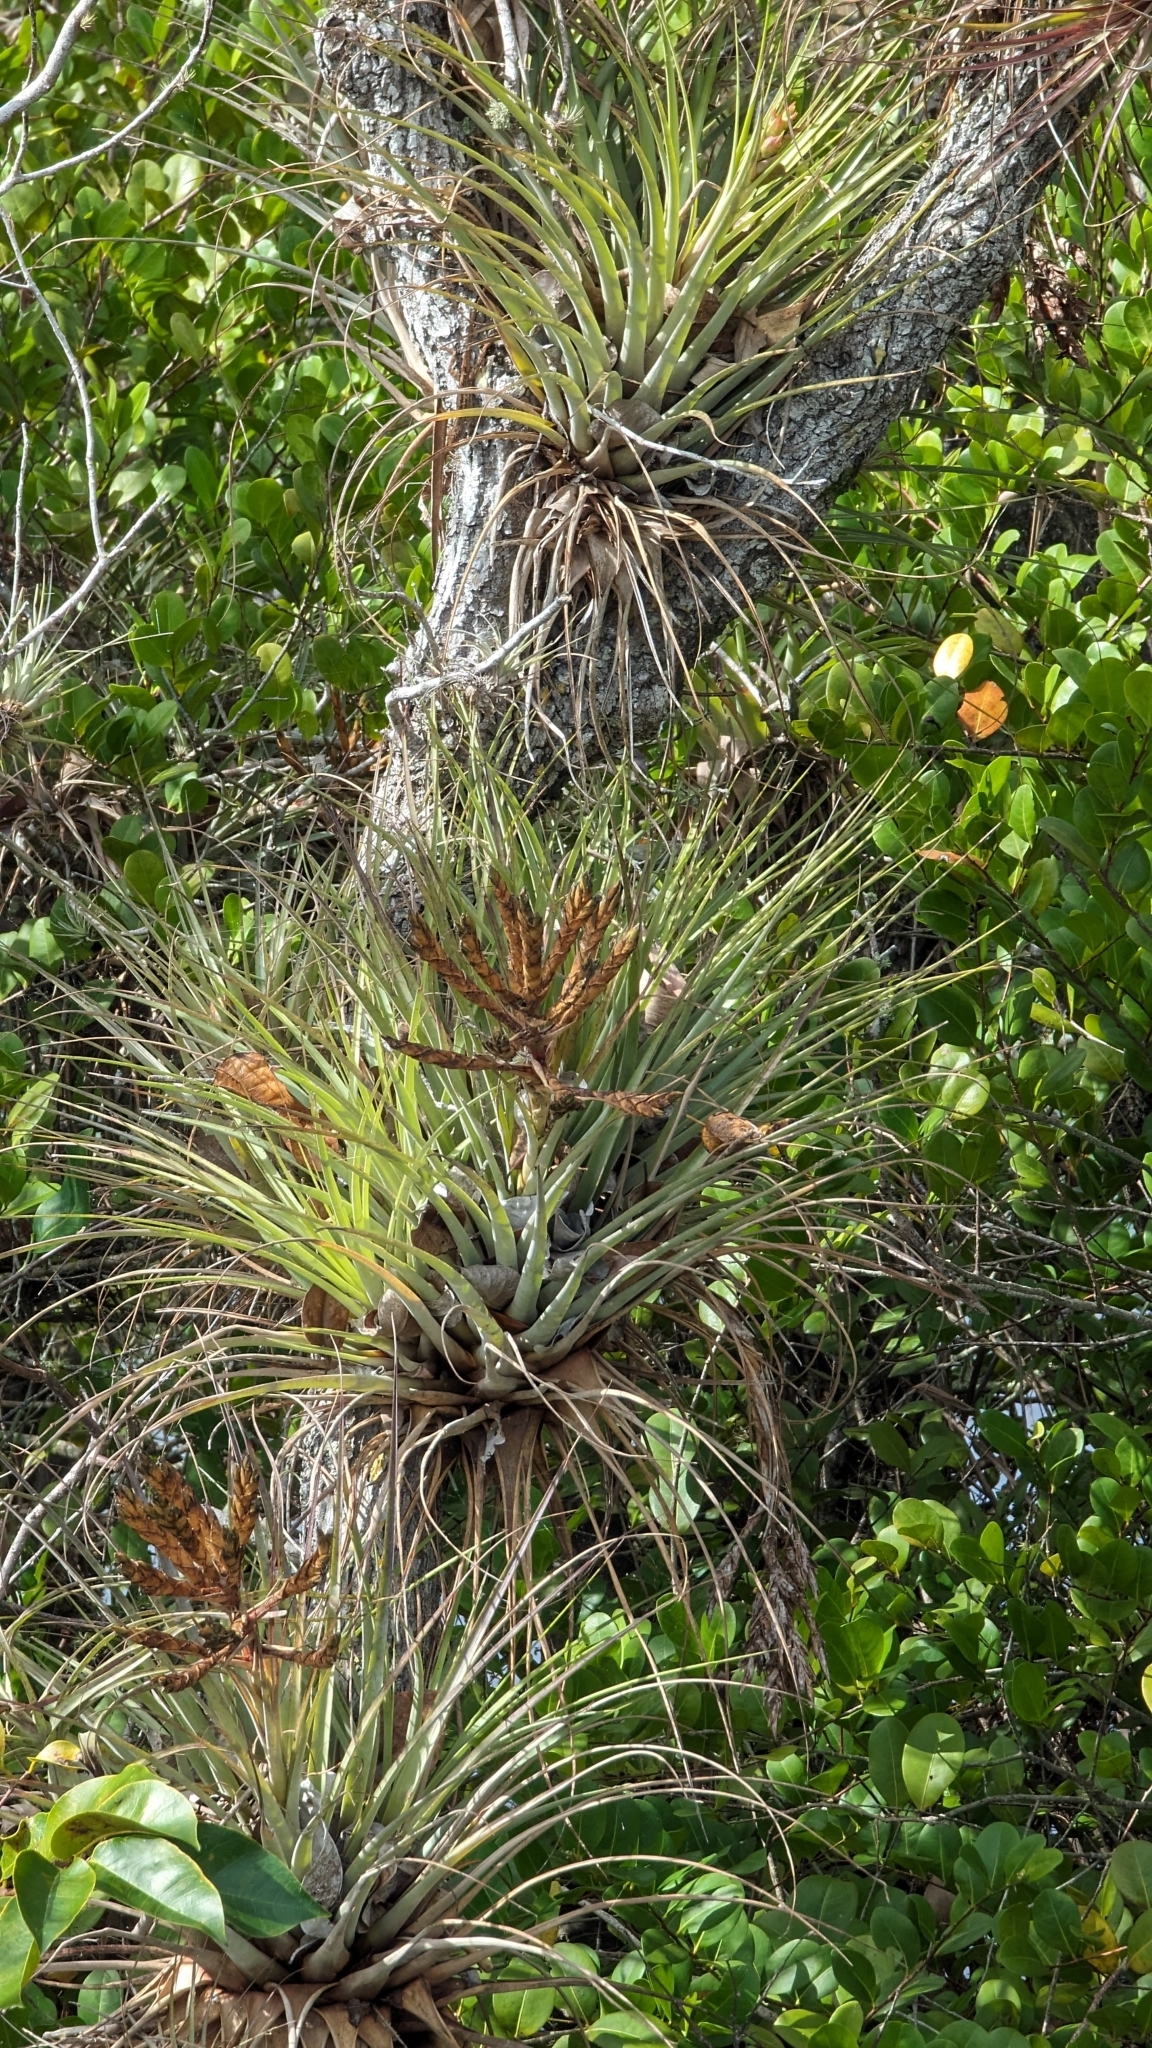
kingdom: Plantae
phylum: Tracheophyta
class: Liliopsida
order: Poales
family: Bromeliaceae
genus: Tillandsia
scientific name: Tillandsia fasciculata
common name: Giant airplant
